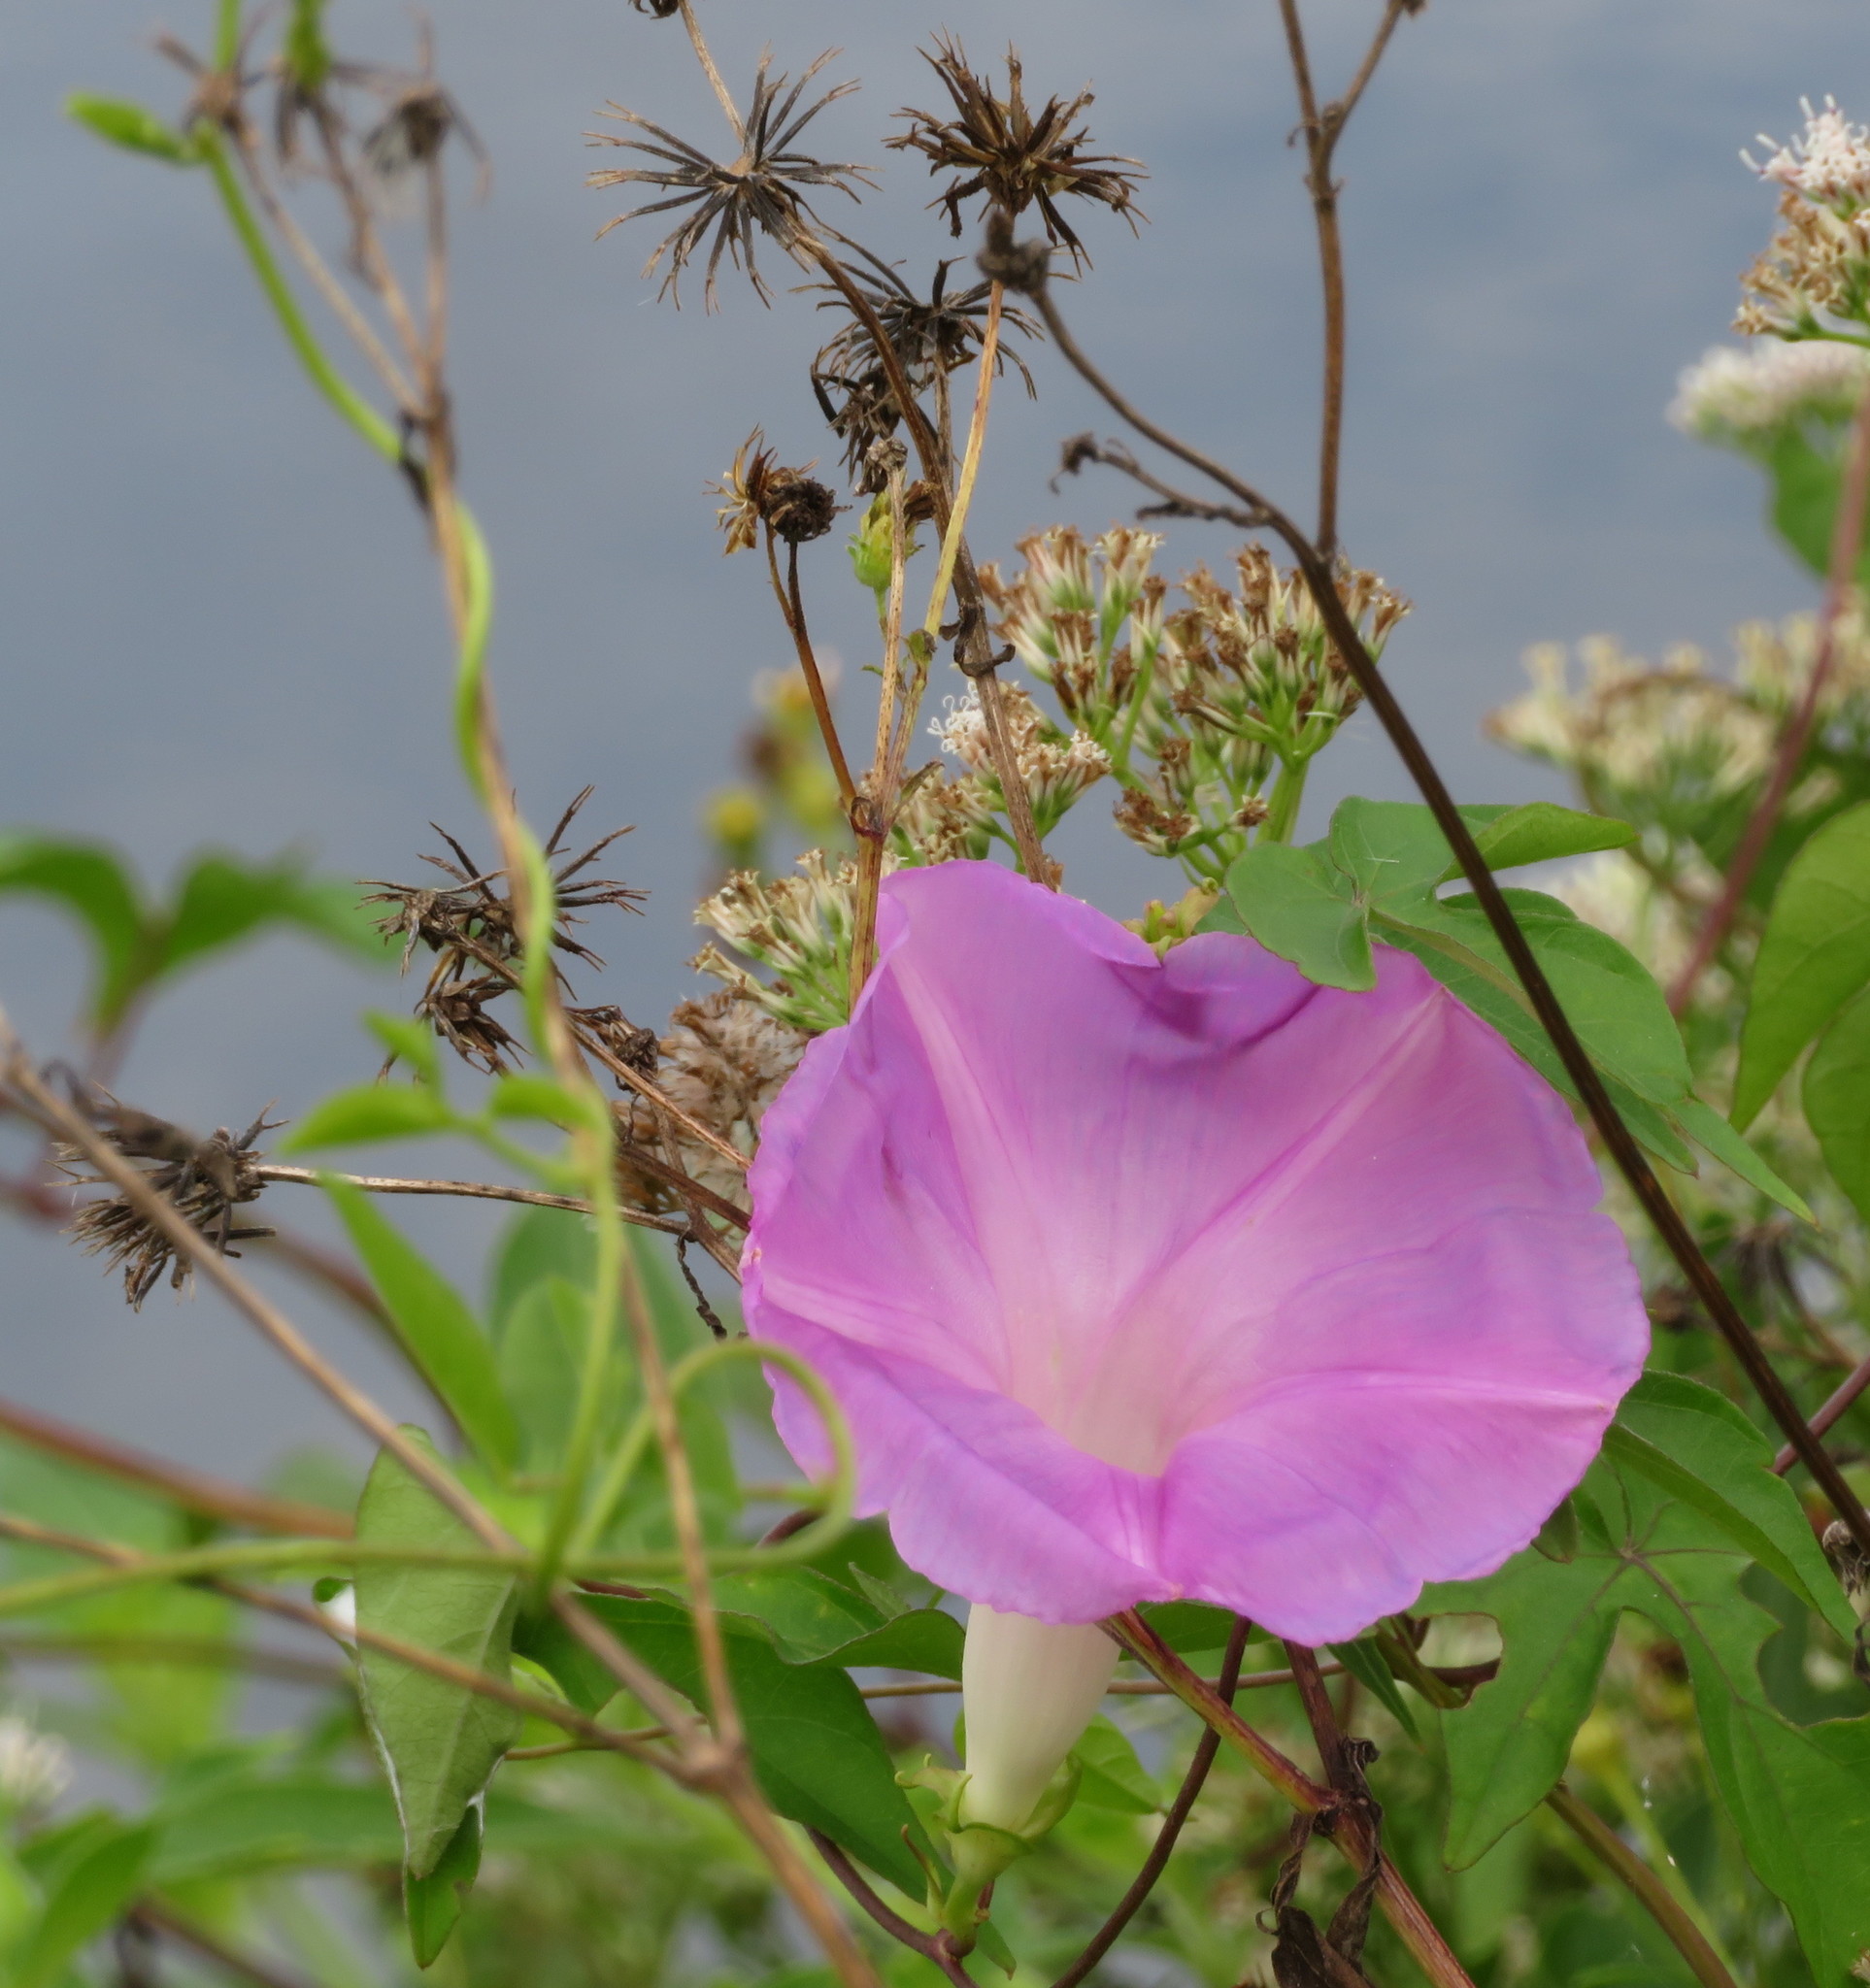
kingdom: Plantae
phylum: Tracheophyta
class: Magnoliopsida
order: Solanales
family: Convolvulaceae
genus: Ipomoea
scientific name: Ipomoea indica
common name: Blue dawnflower
